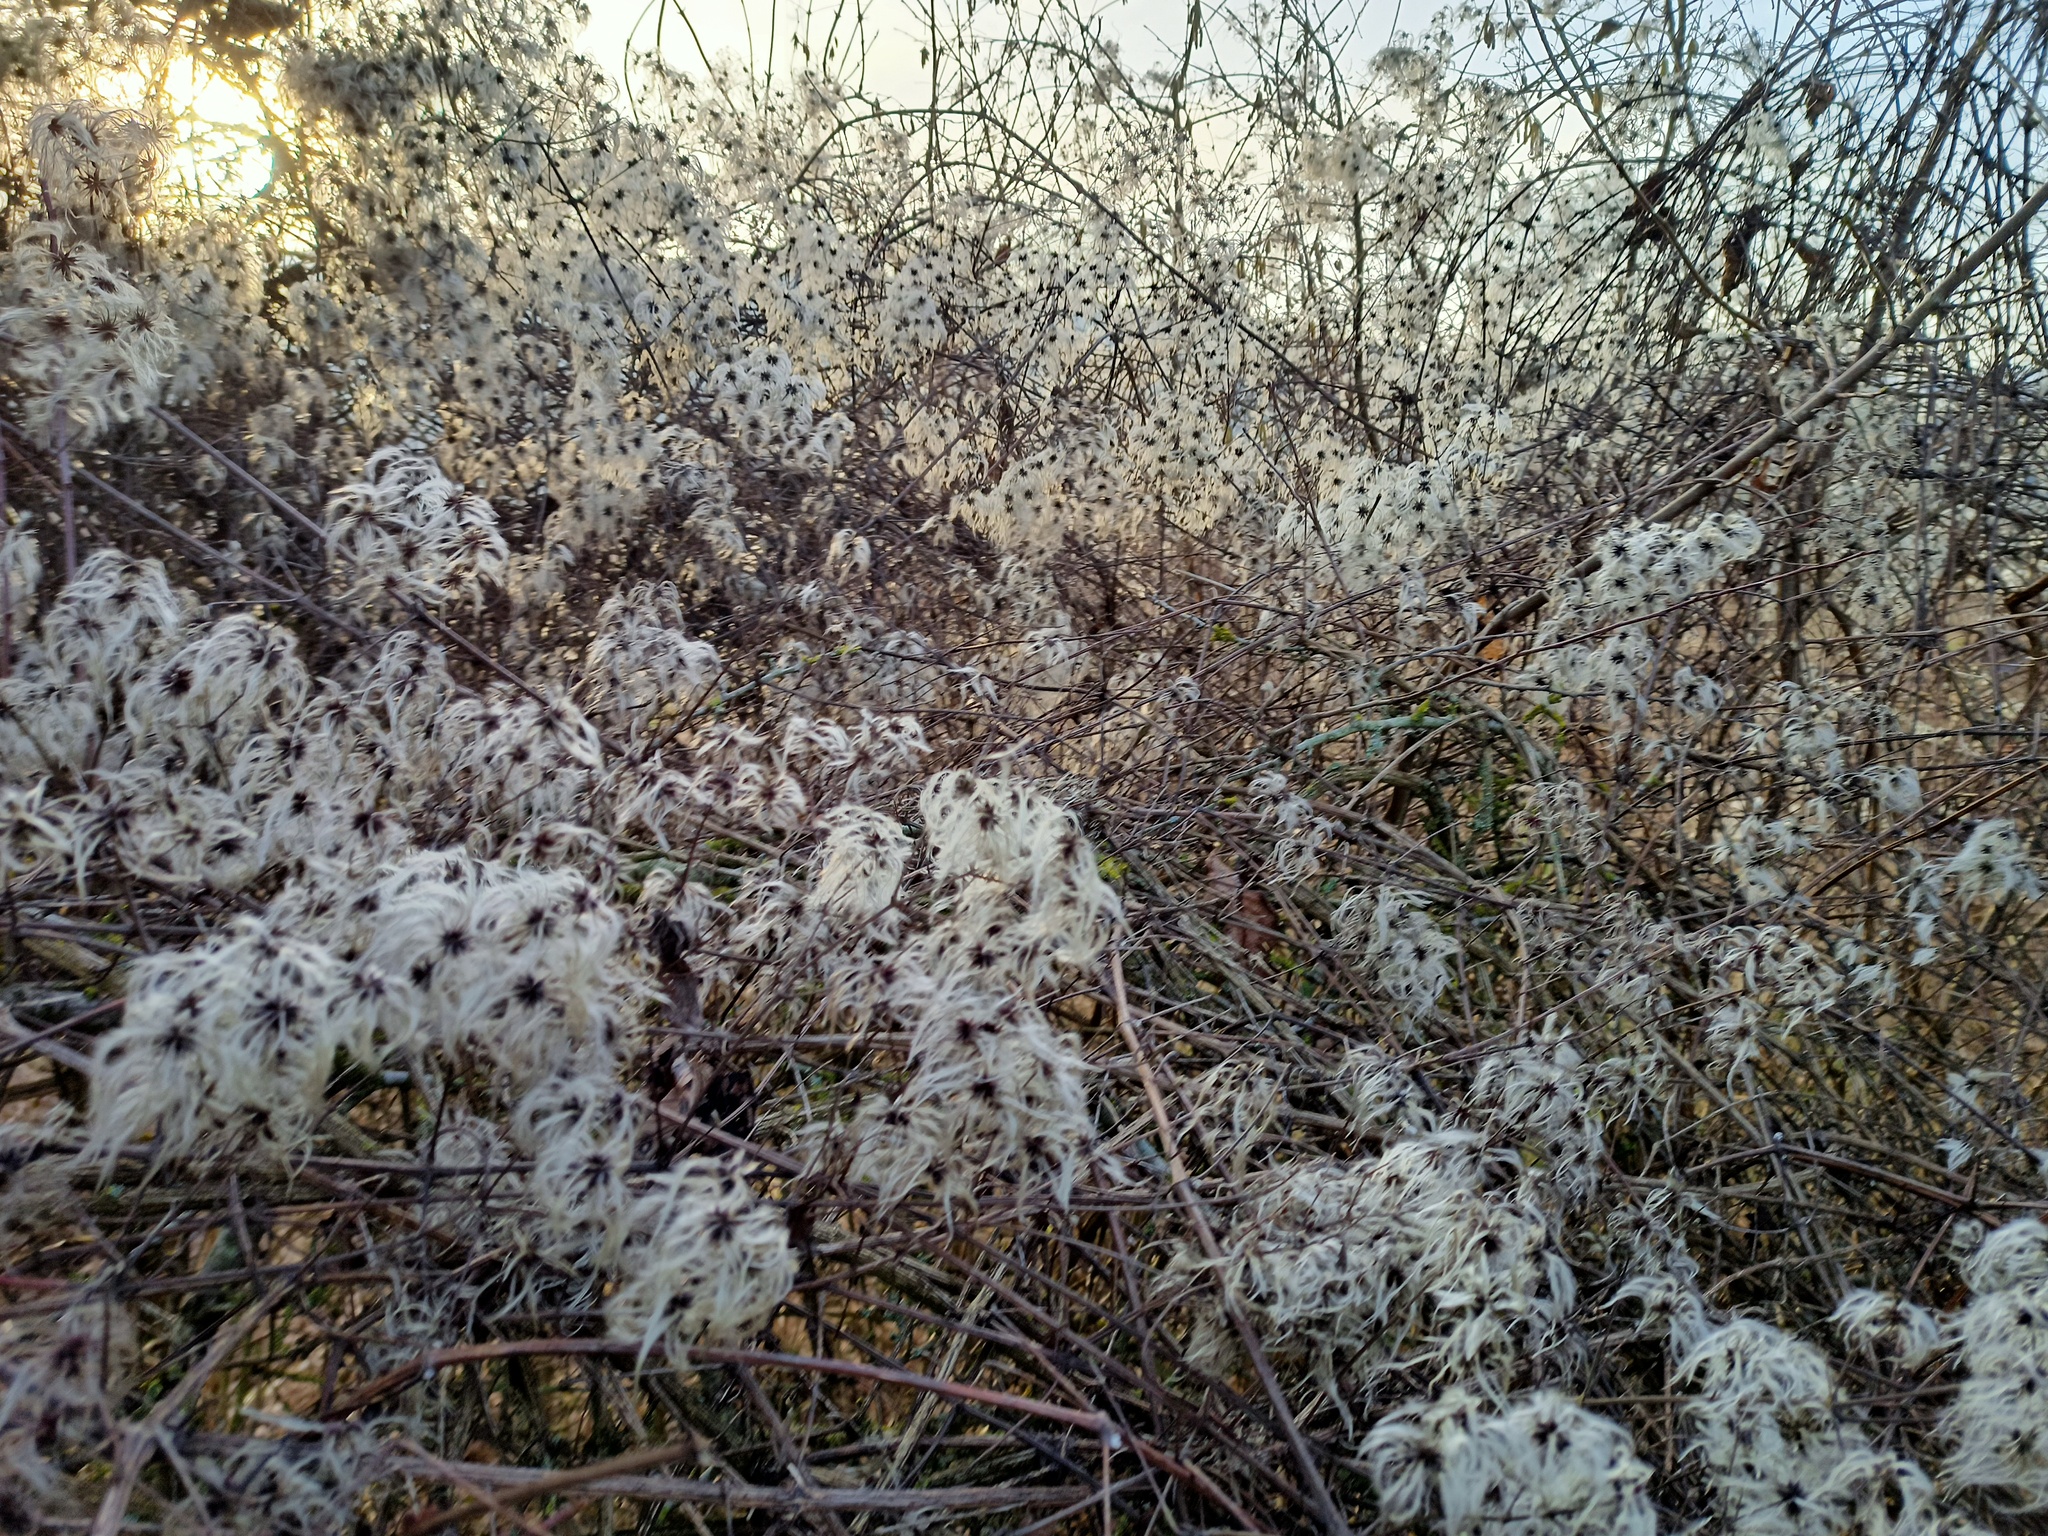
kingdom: Plantae
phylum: Tracheophyta
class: Magnoliopsida
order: Ranunculales
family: Ranunculaceae
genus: Clematis
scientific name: Clematis vitalba
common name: Evergreen clematis
